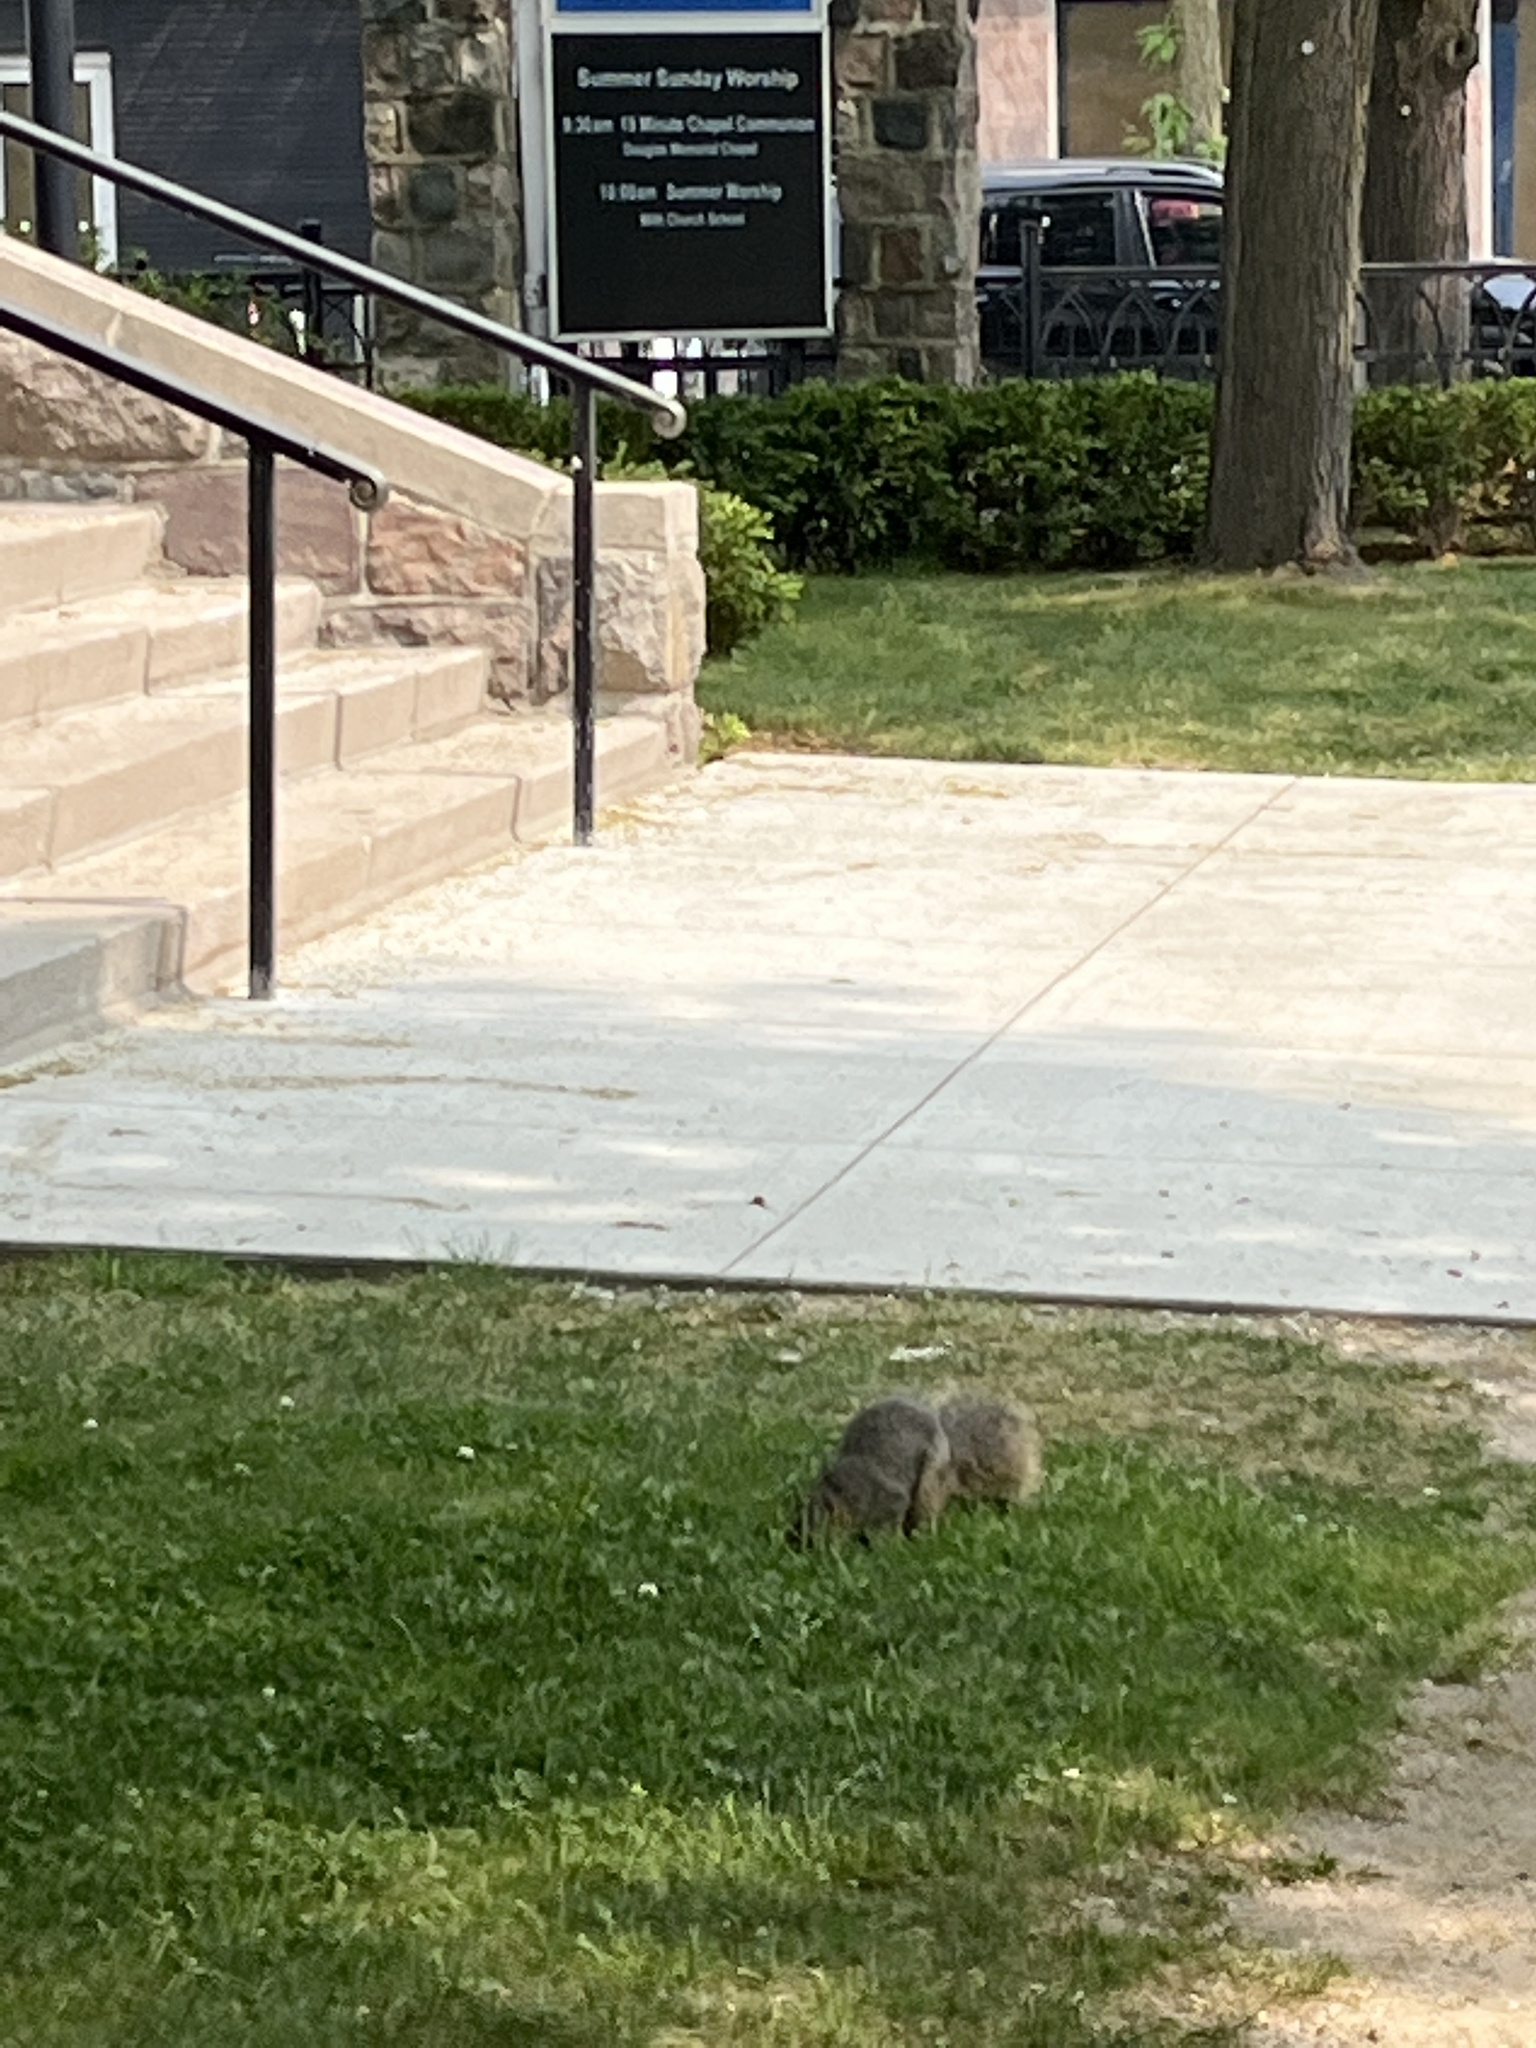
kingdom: Animalia
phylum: Chordata
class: Mammalia
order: Rodentia
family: Sciuridae
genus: Sciurus
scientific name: Sciurus niger
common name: Fox squirrel
